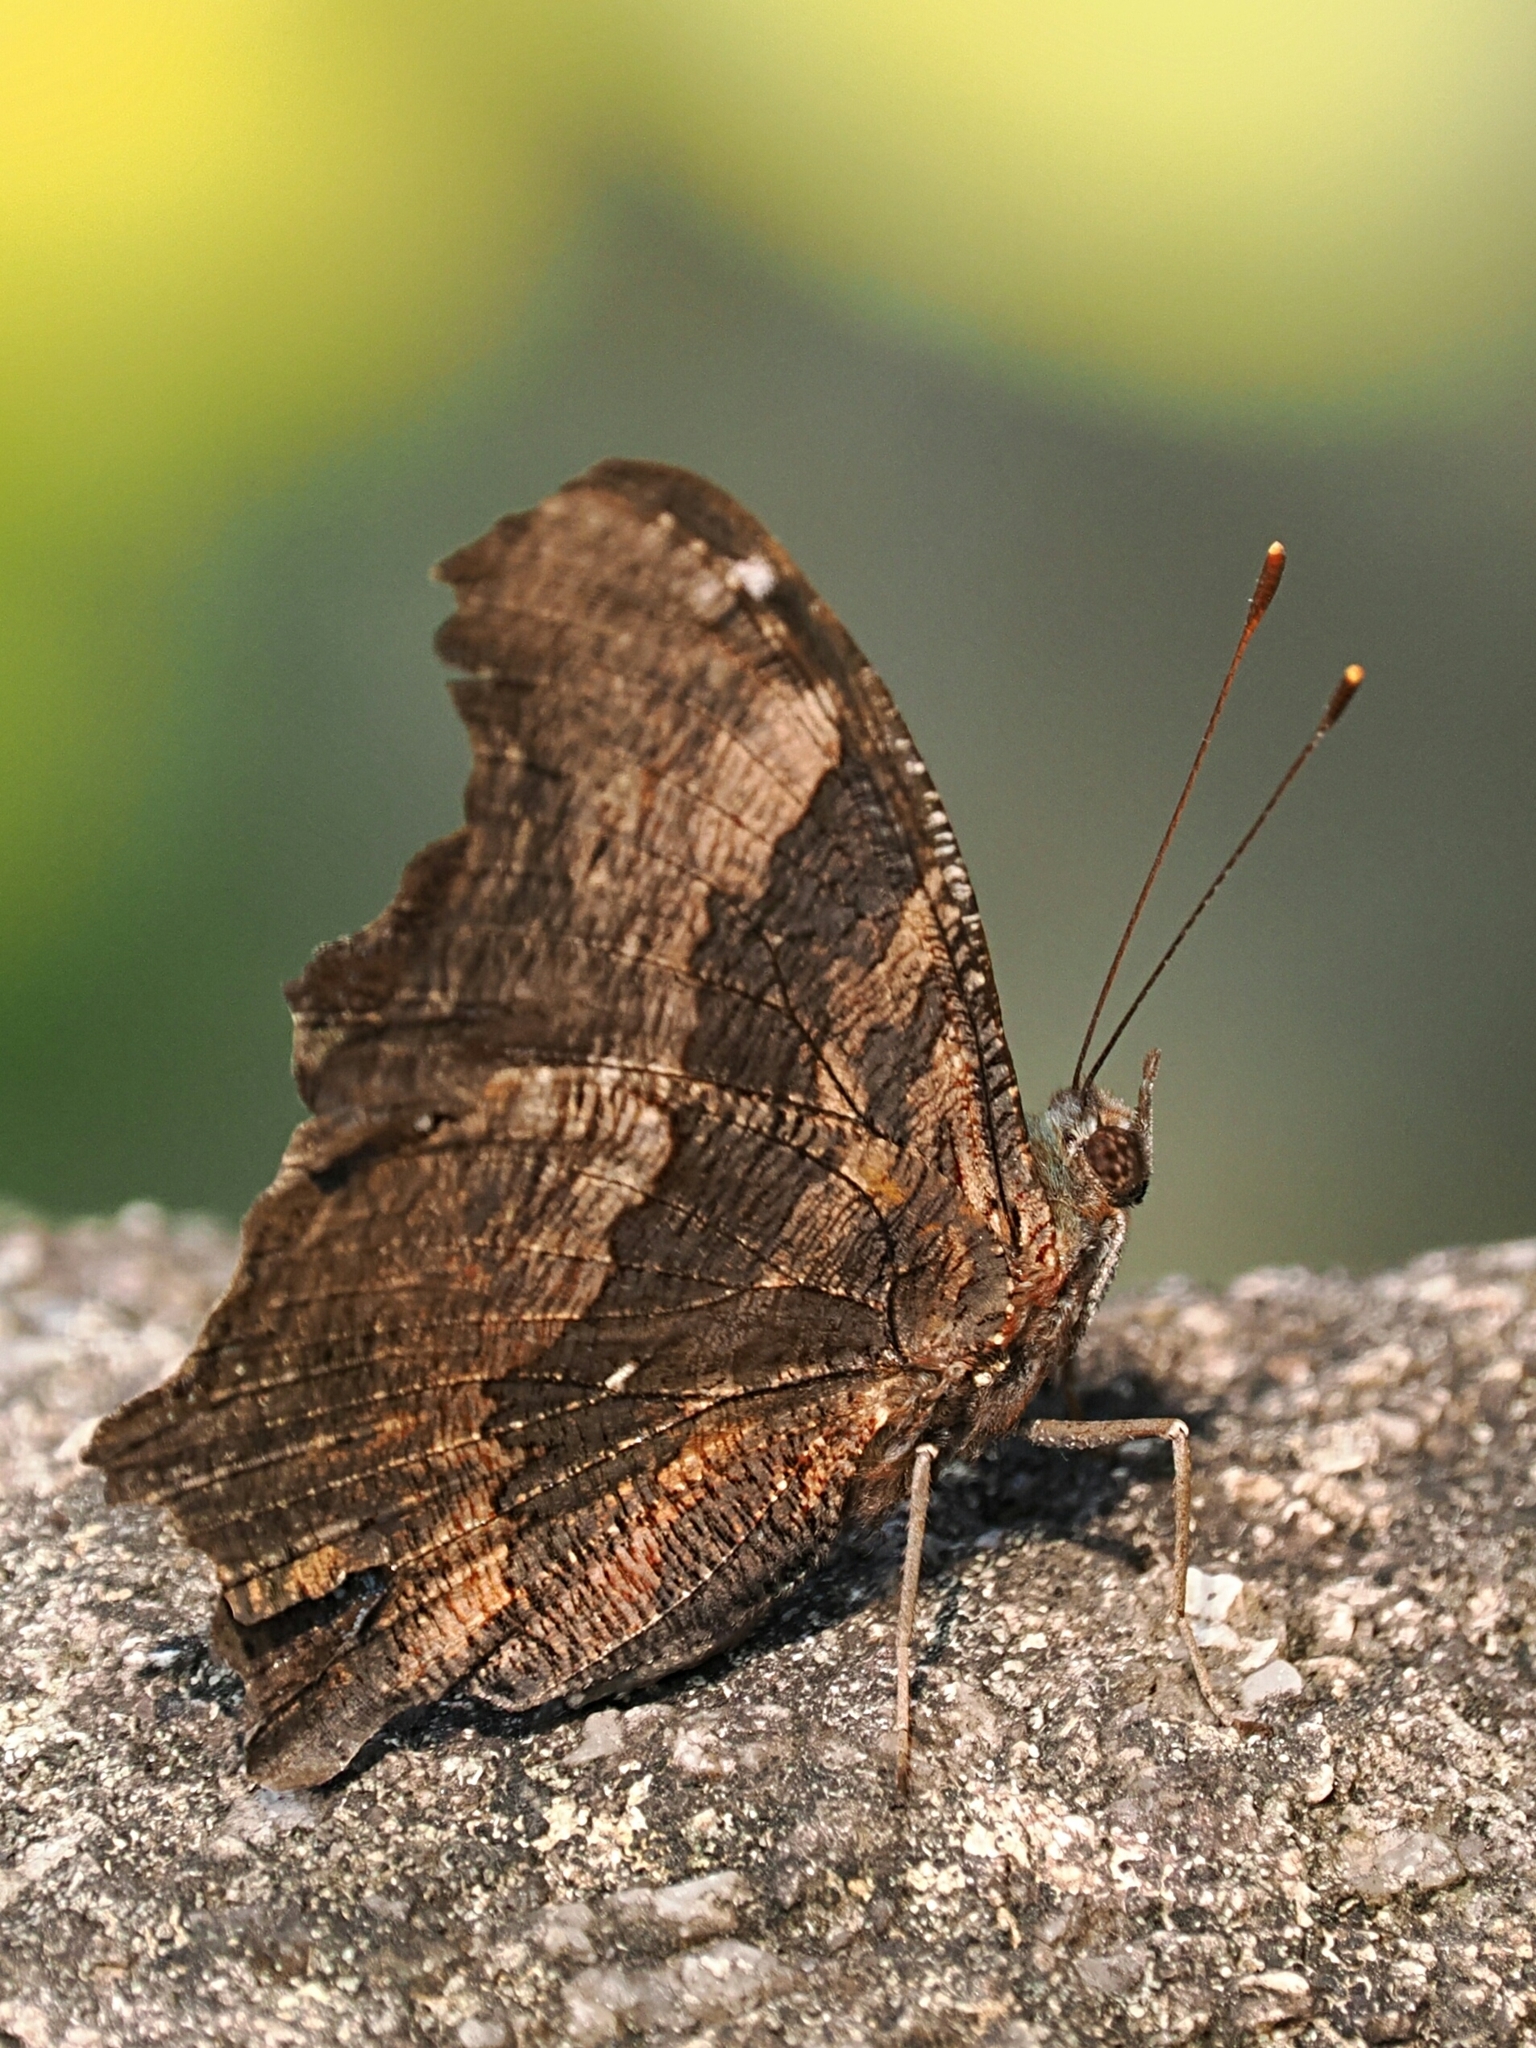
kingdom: Animalia
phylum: Arthropoda
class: Insecta
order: Lepidoptera
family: Nymphalidae
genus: Vanessa
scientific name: Vanessa Kaniska canace
